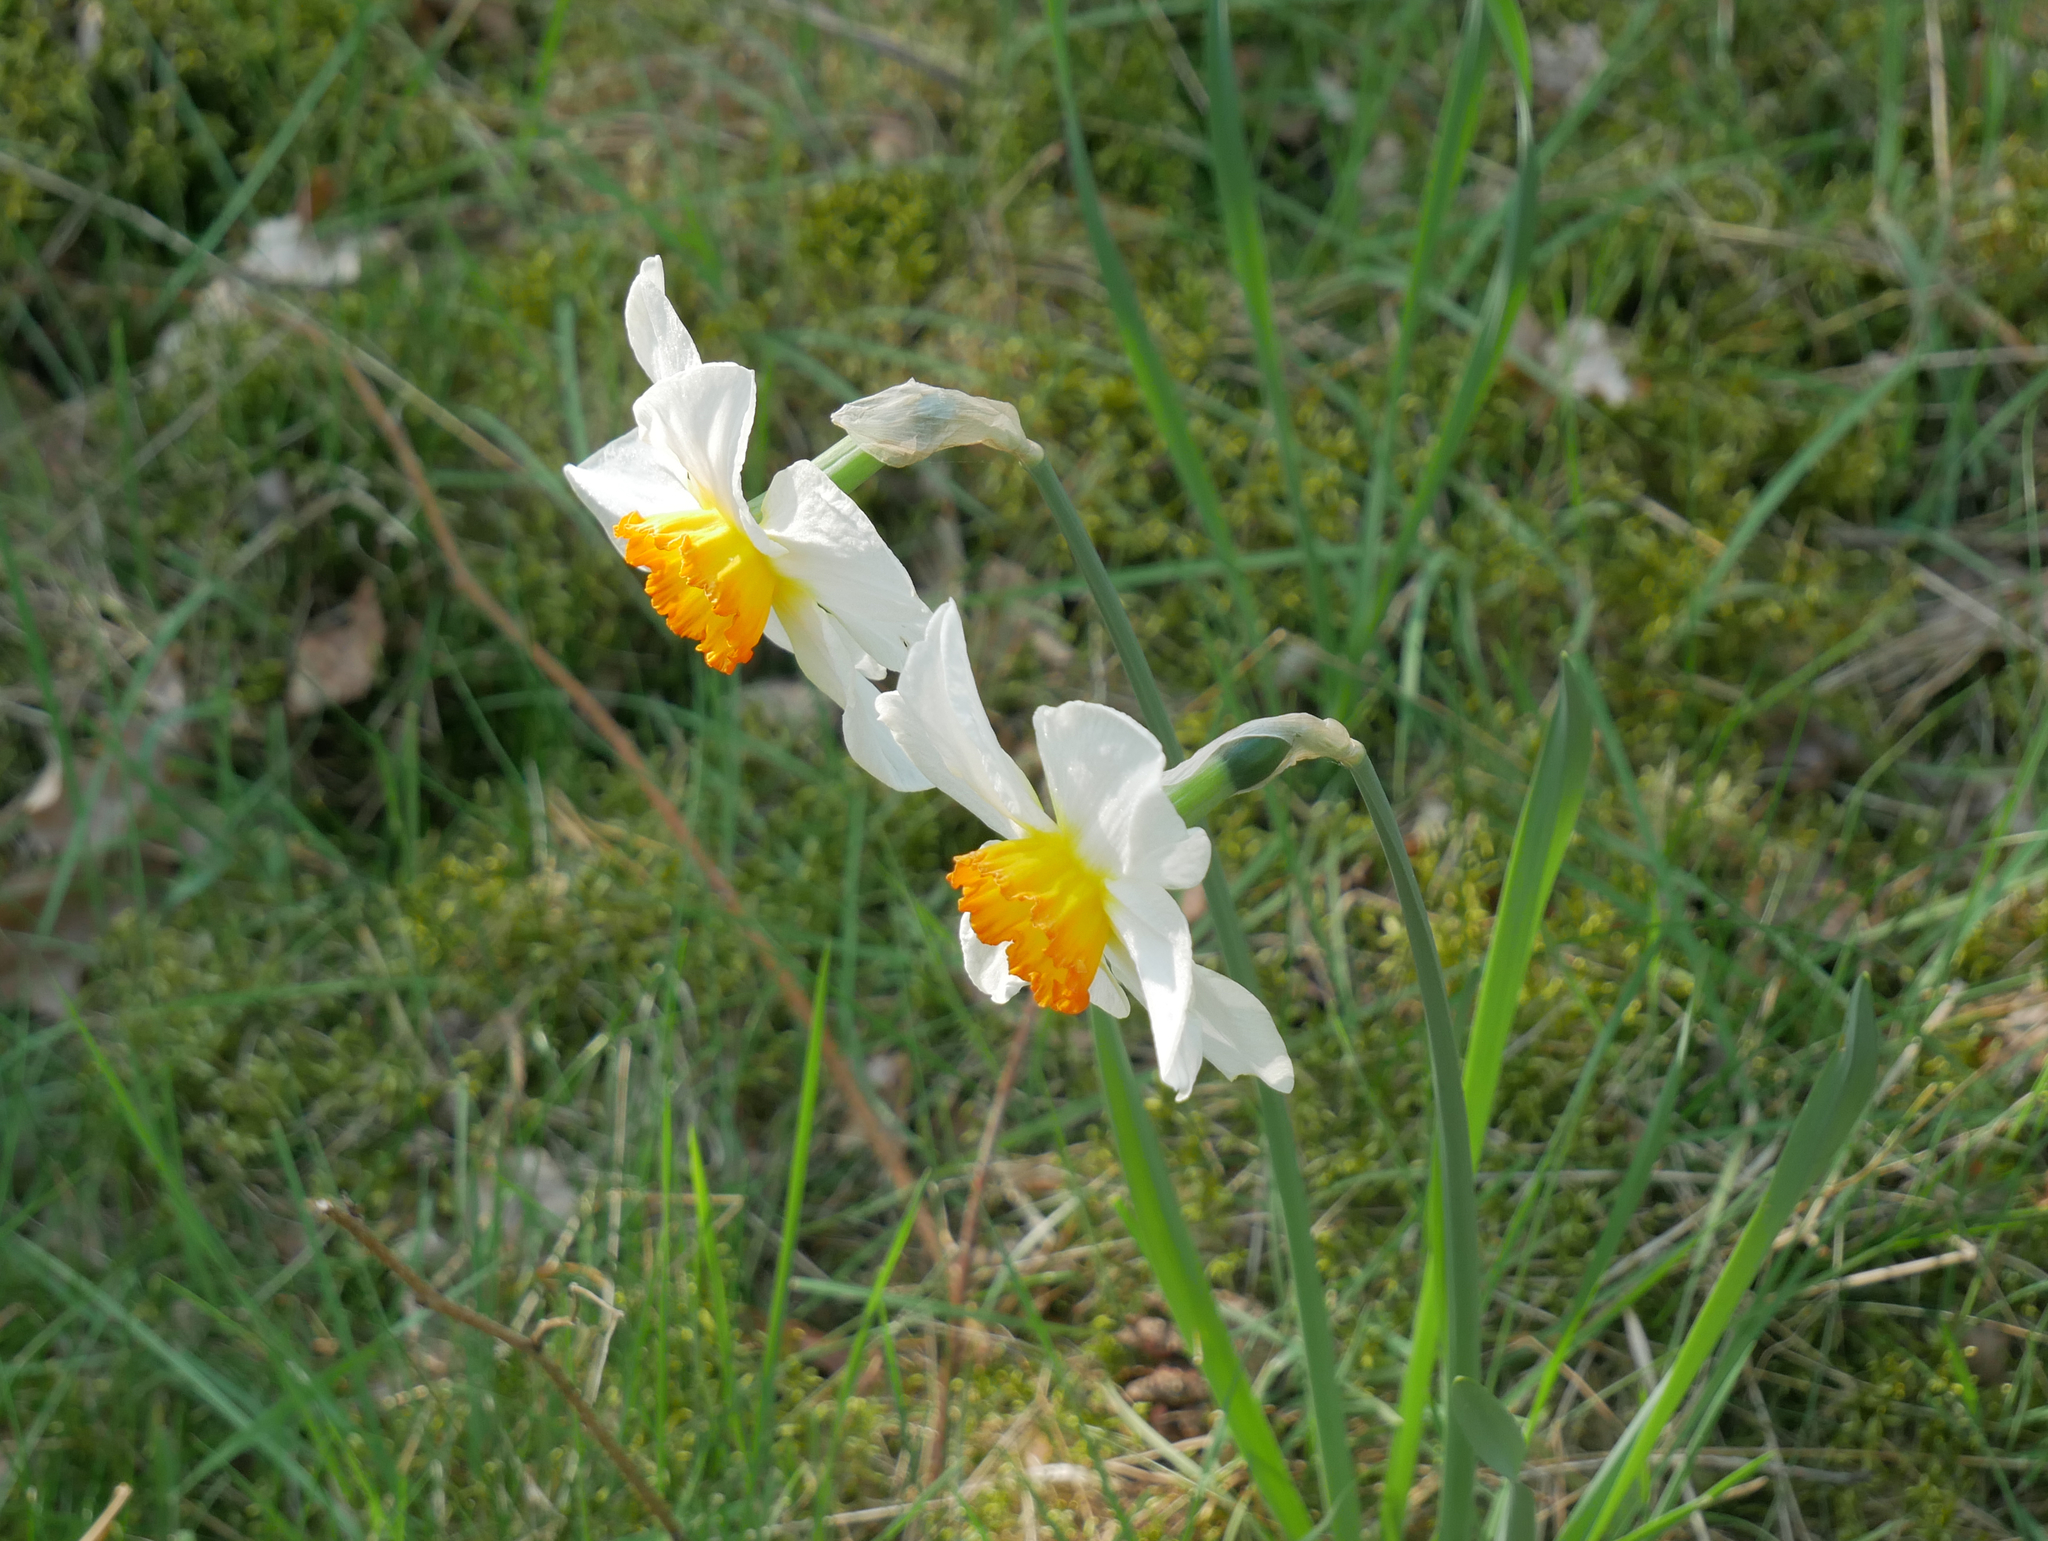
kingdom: Plantae
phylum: Tracheophyta
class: Liliopsida
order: Asparagales
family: Amaryllidaceae
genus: Narcissus
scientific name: Narcissus poeticus
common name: Pheasant's-eye daffodil
